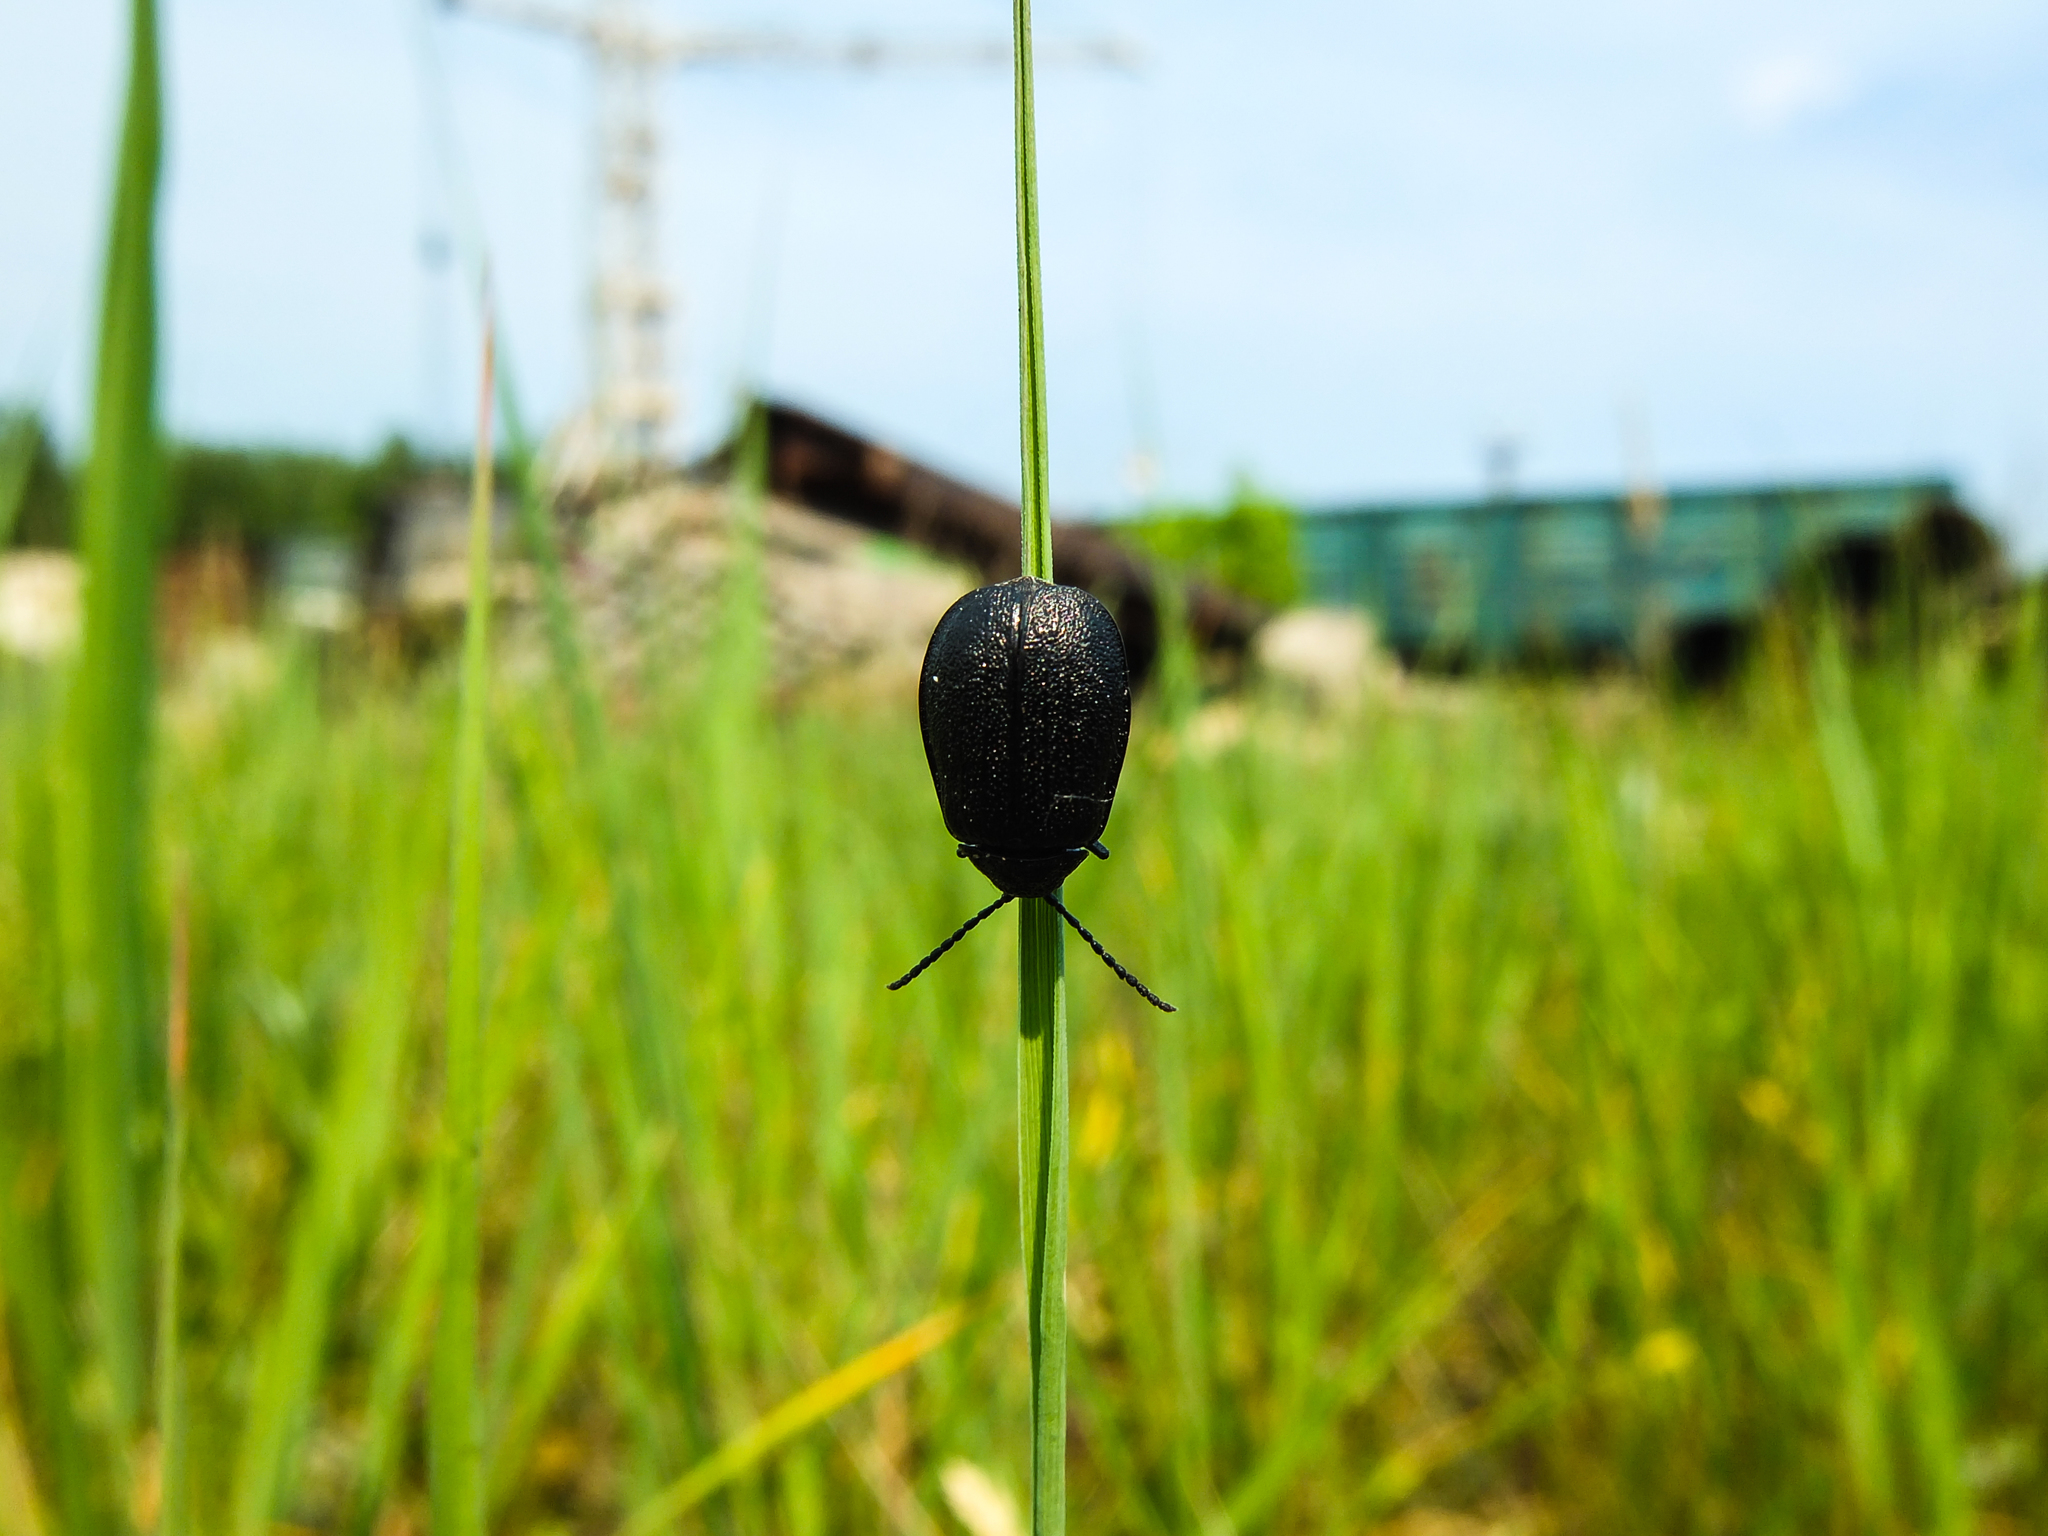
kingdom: Animalia
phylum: Arthropoda
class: Insecta
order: Coleoptera
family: Chrysomelidae
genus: Galeruca
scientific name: Galeruca tanaceti
